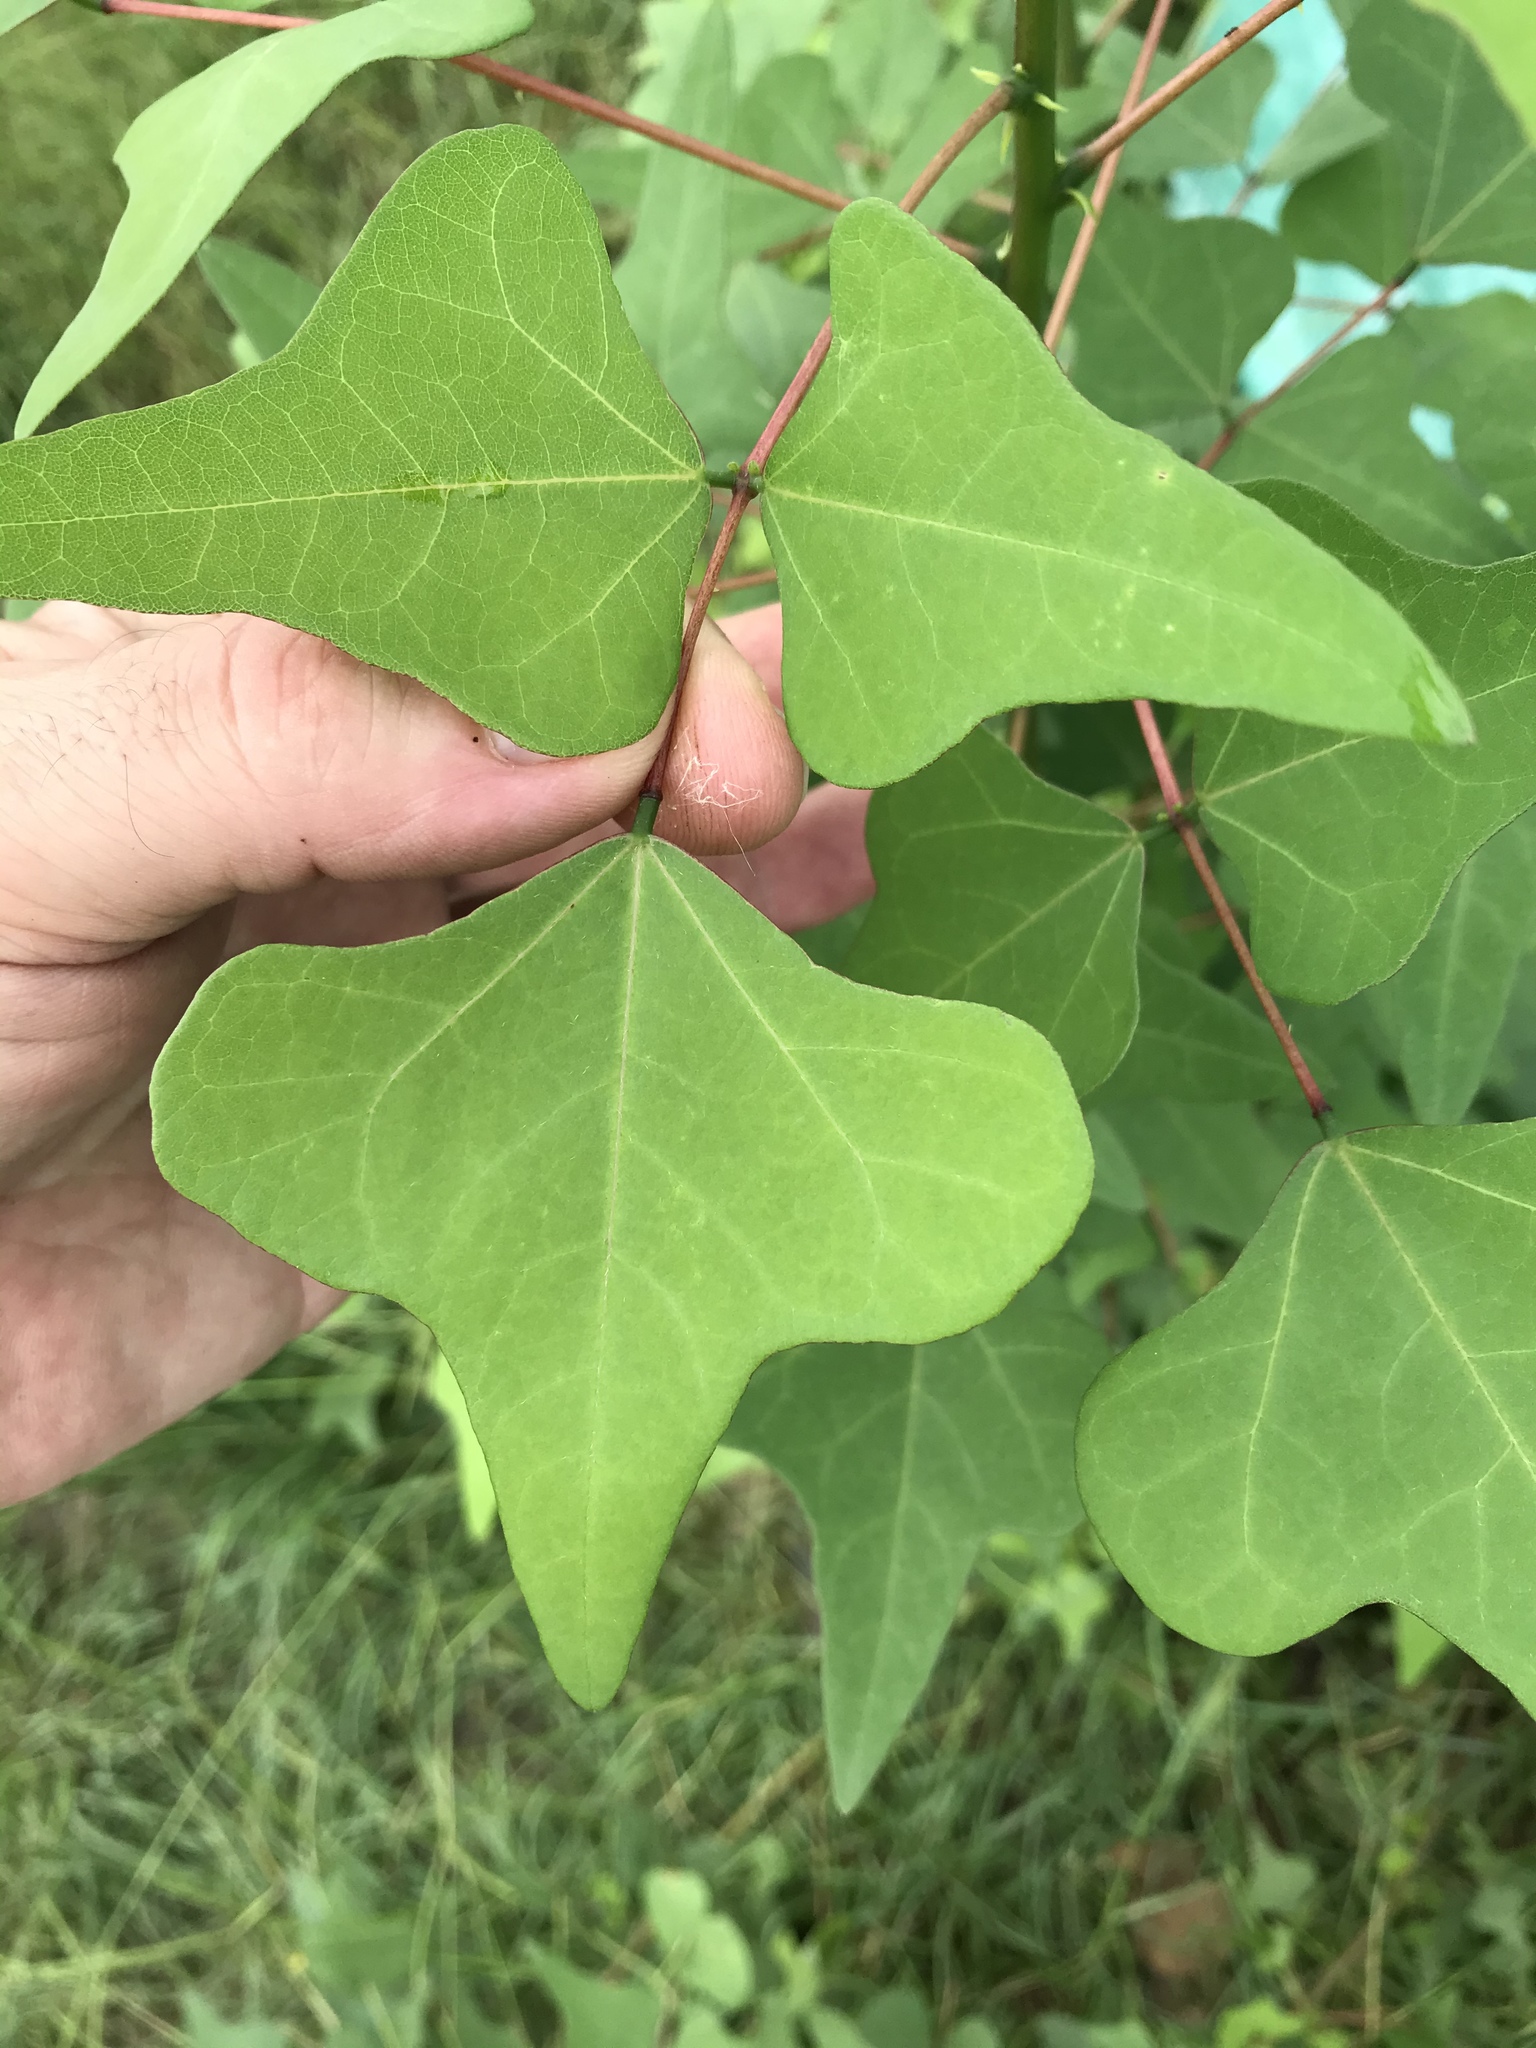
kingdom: Plantae
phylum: Tracheophyta
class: Magnoliopsida
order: Fabales
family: Fabaceae
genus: Erythrina
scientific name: Erythrina herbacea
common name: Coral-bean
